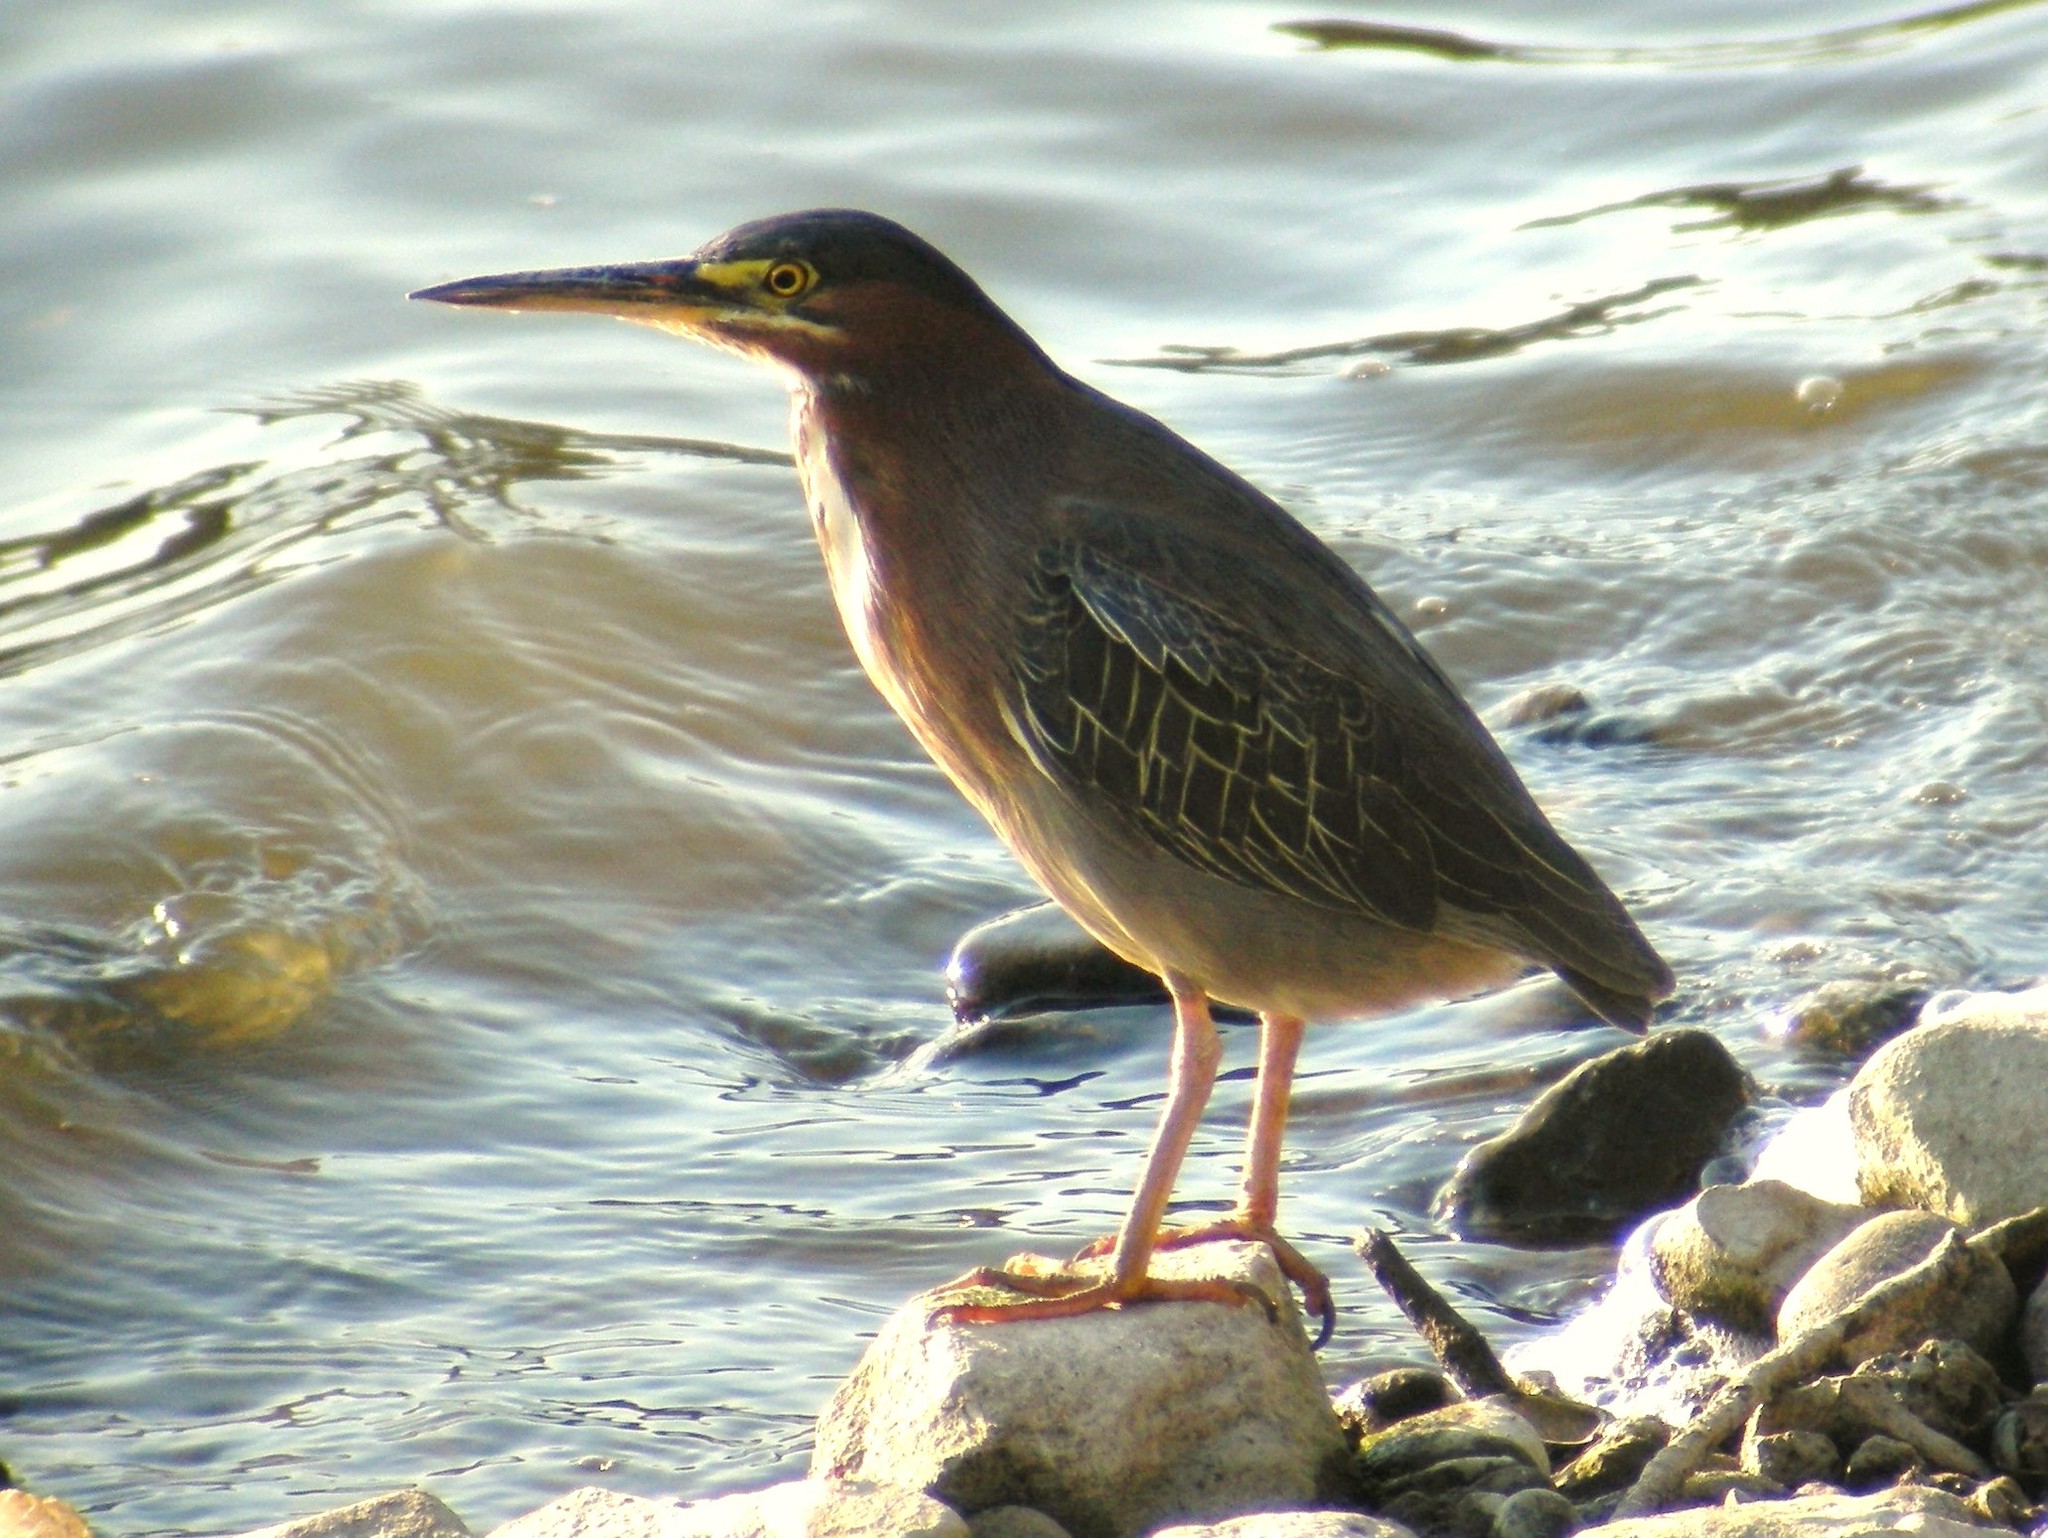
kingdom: Animalia
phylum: Chordata
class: Aves
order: Pelecaniformes
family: Ardeidae
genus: Butorides
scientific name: Butorides virescens
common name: Green heron
